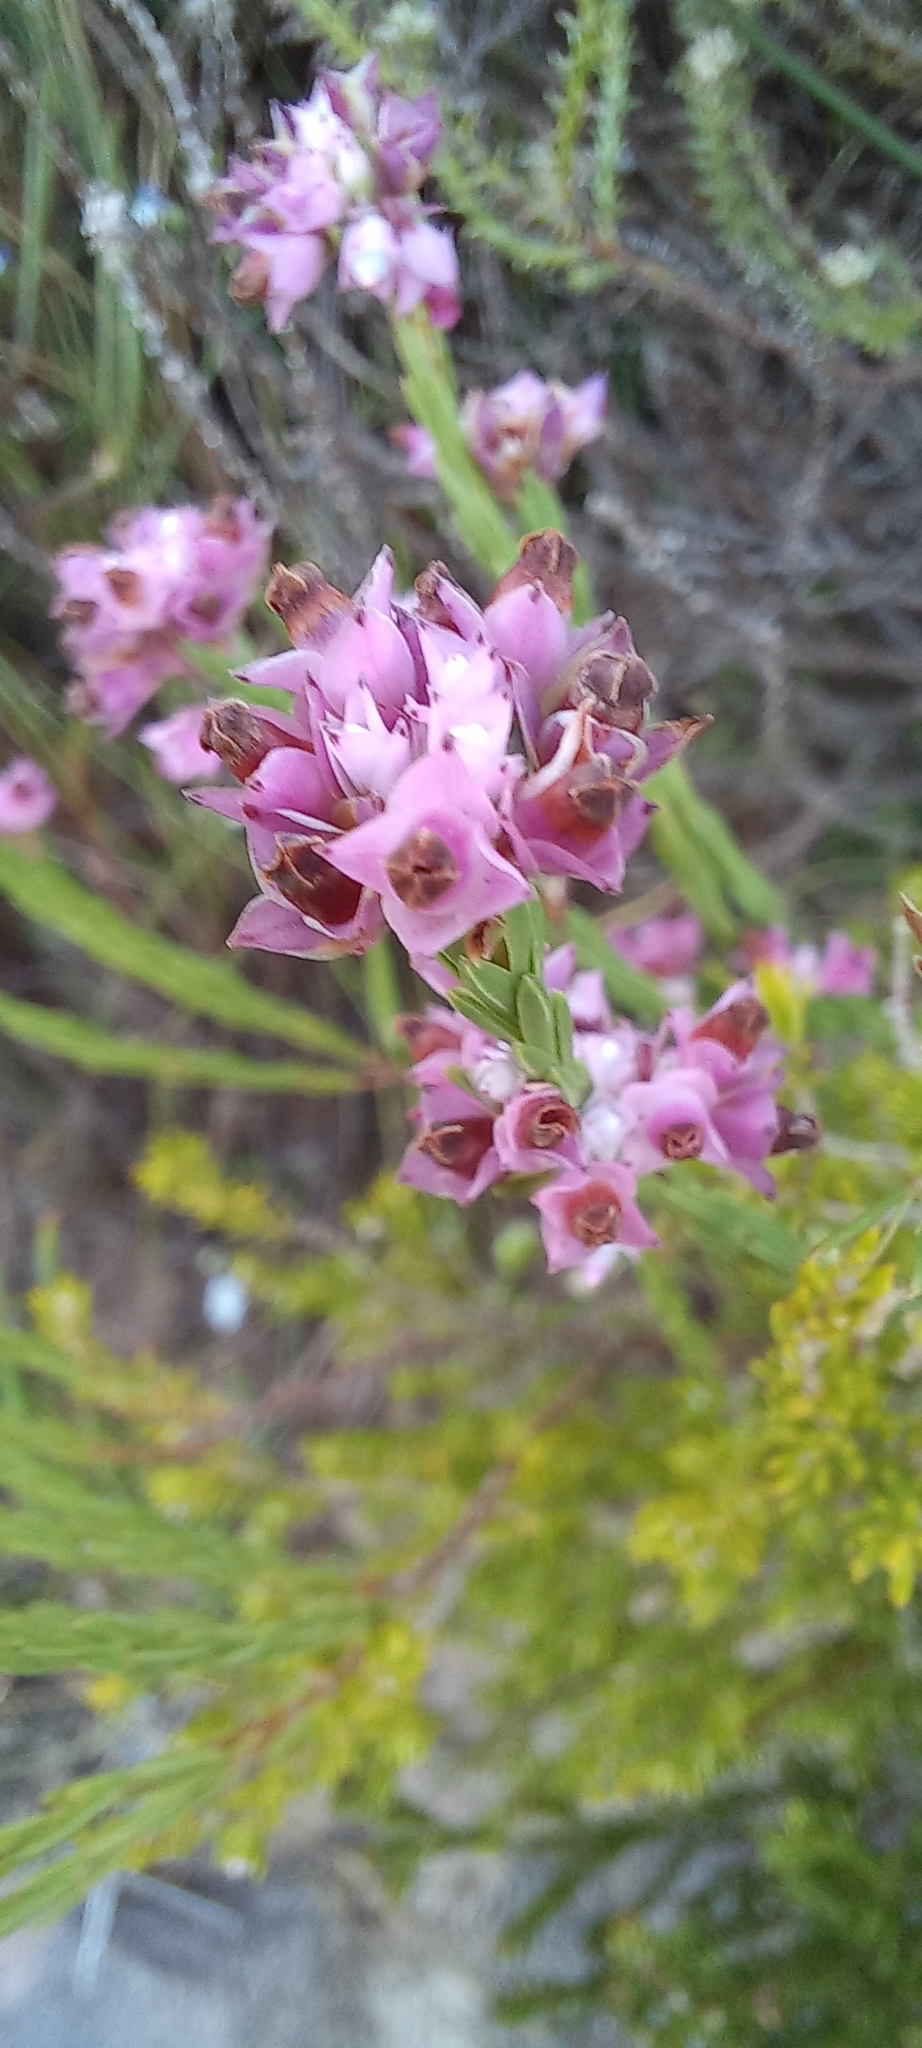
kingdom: Plantae
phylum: Tracheophyta
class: Magnoliopsida
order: Ericales
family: Ericaceae
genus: Erica
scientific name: Erica corifolia
